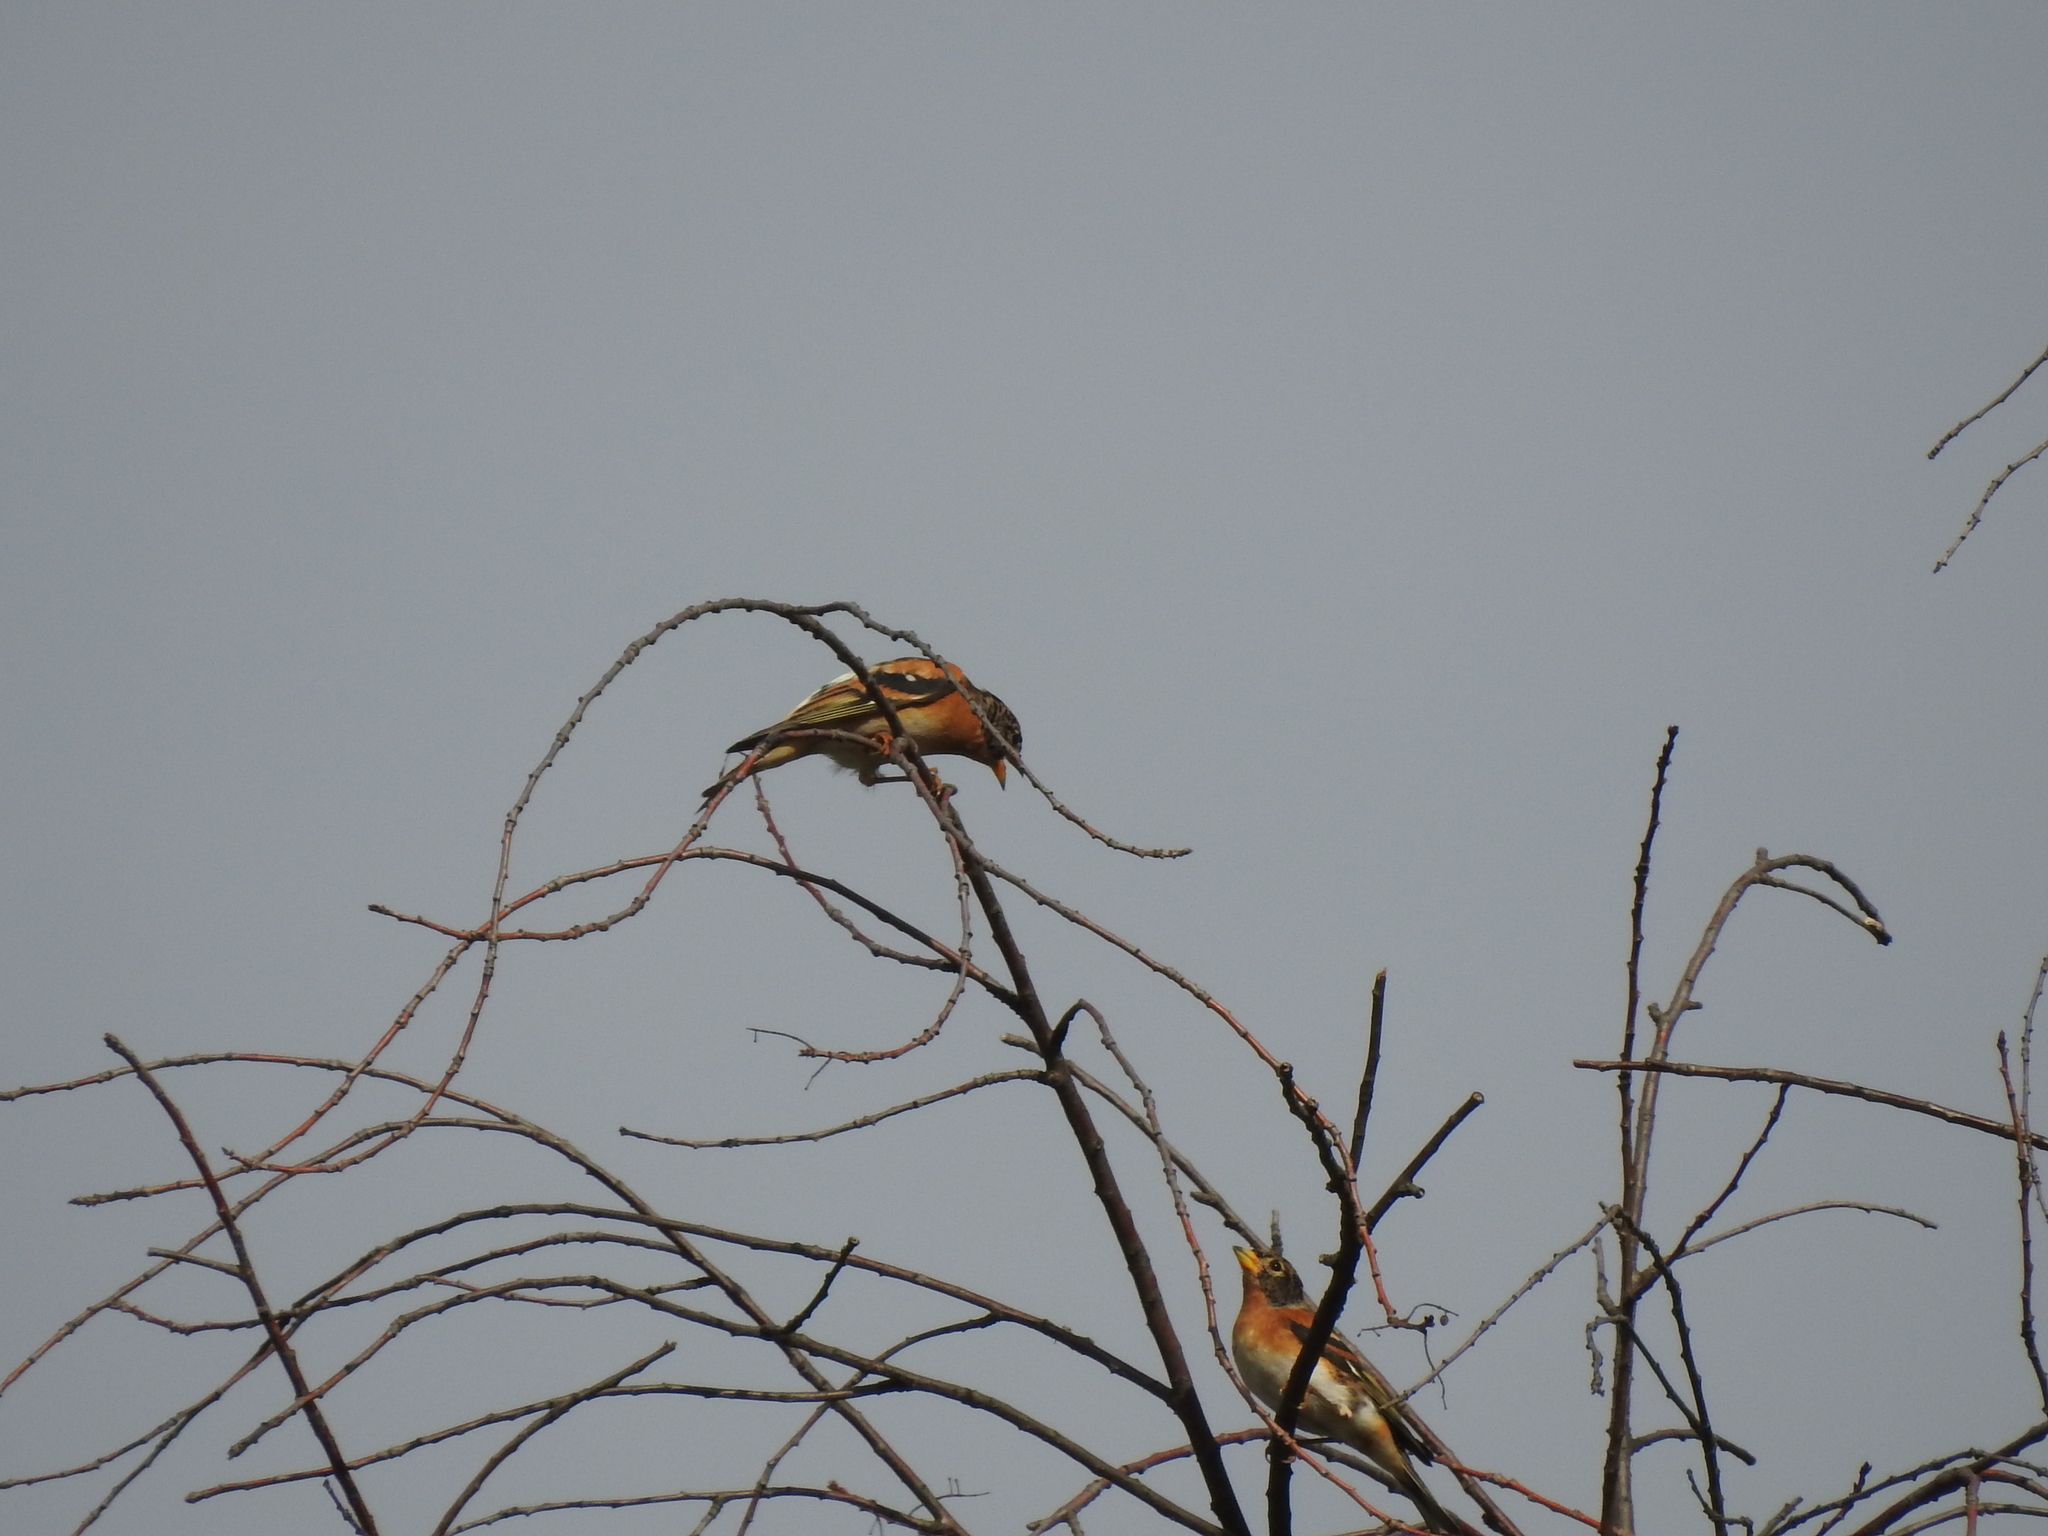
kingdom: Animalia
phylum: Chordata
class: Aves
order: Passeriformes
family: Fringillidae
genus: Fringilla
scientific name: Fringilla montifringilla
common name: Brambling
